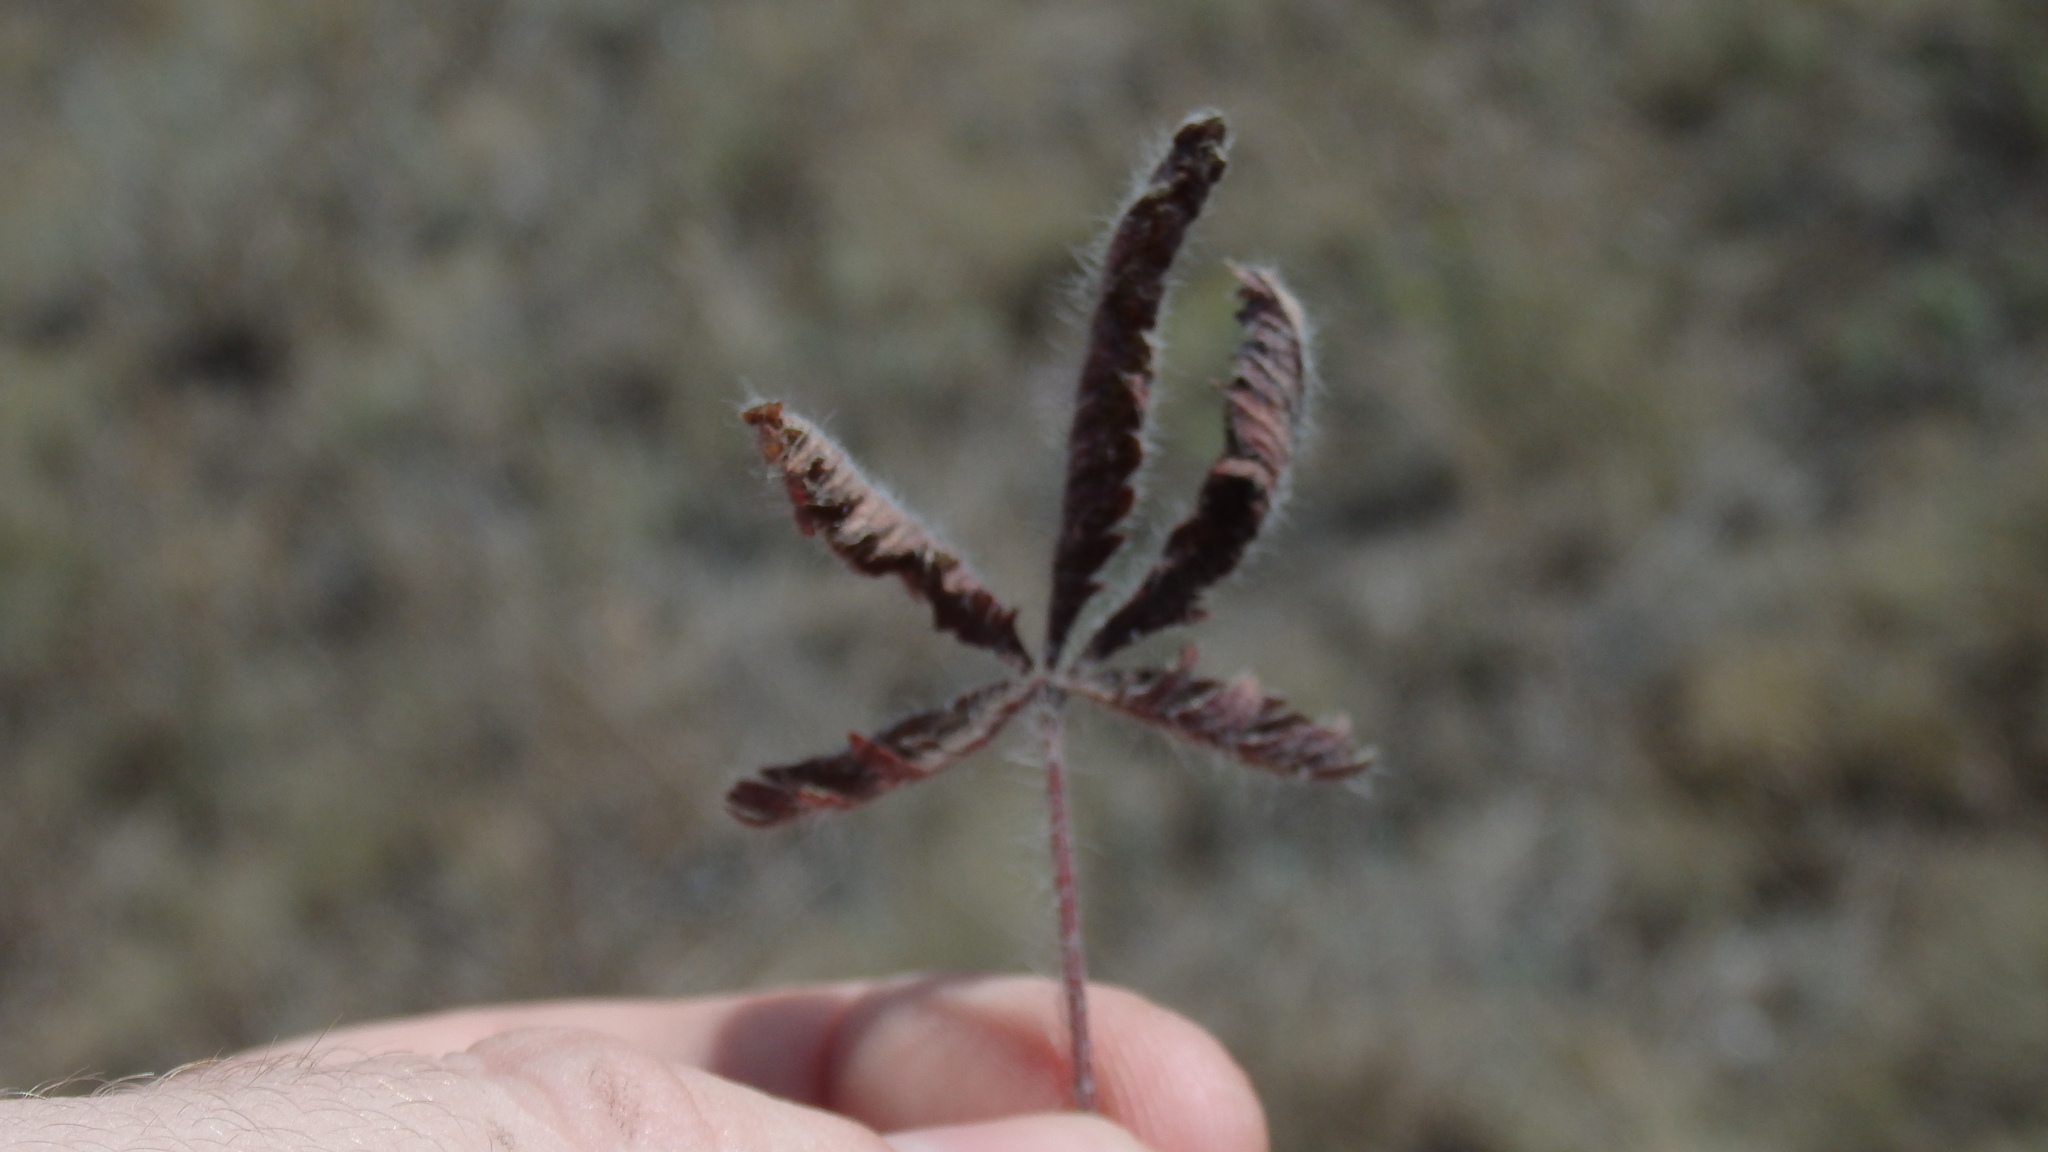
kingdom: Plantae
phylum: Tracheophyta
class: Magnoliopsida
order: Rosales
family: Rosaceae
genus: Potentilla
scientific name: Potentilla recta
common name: Sulphur cinquefoil
